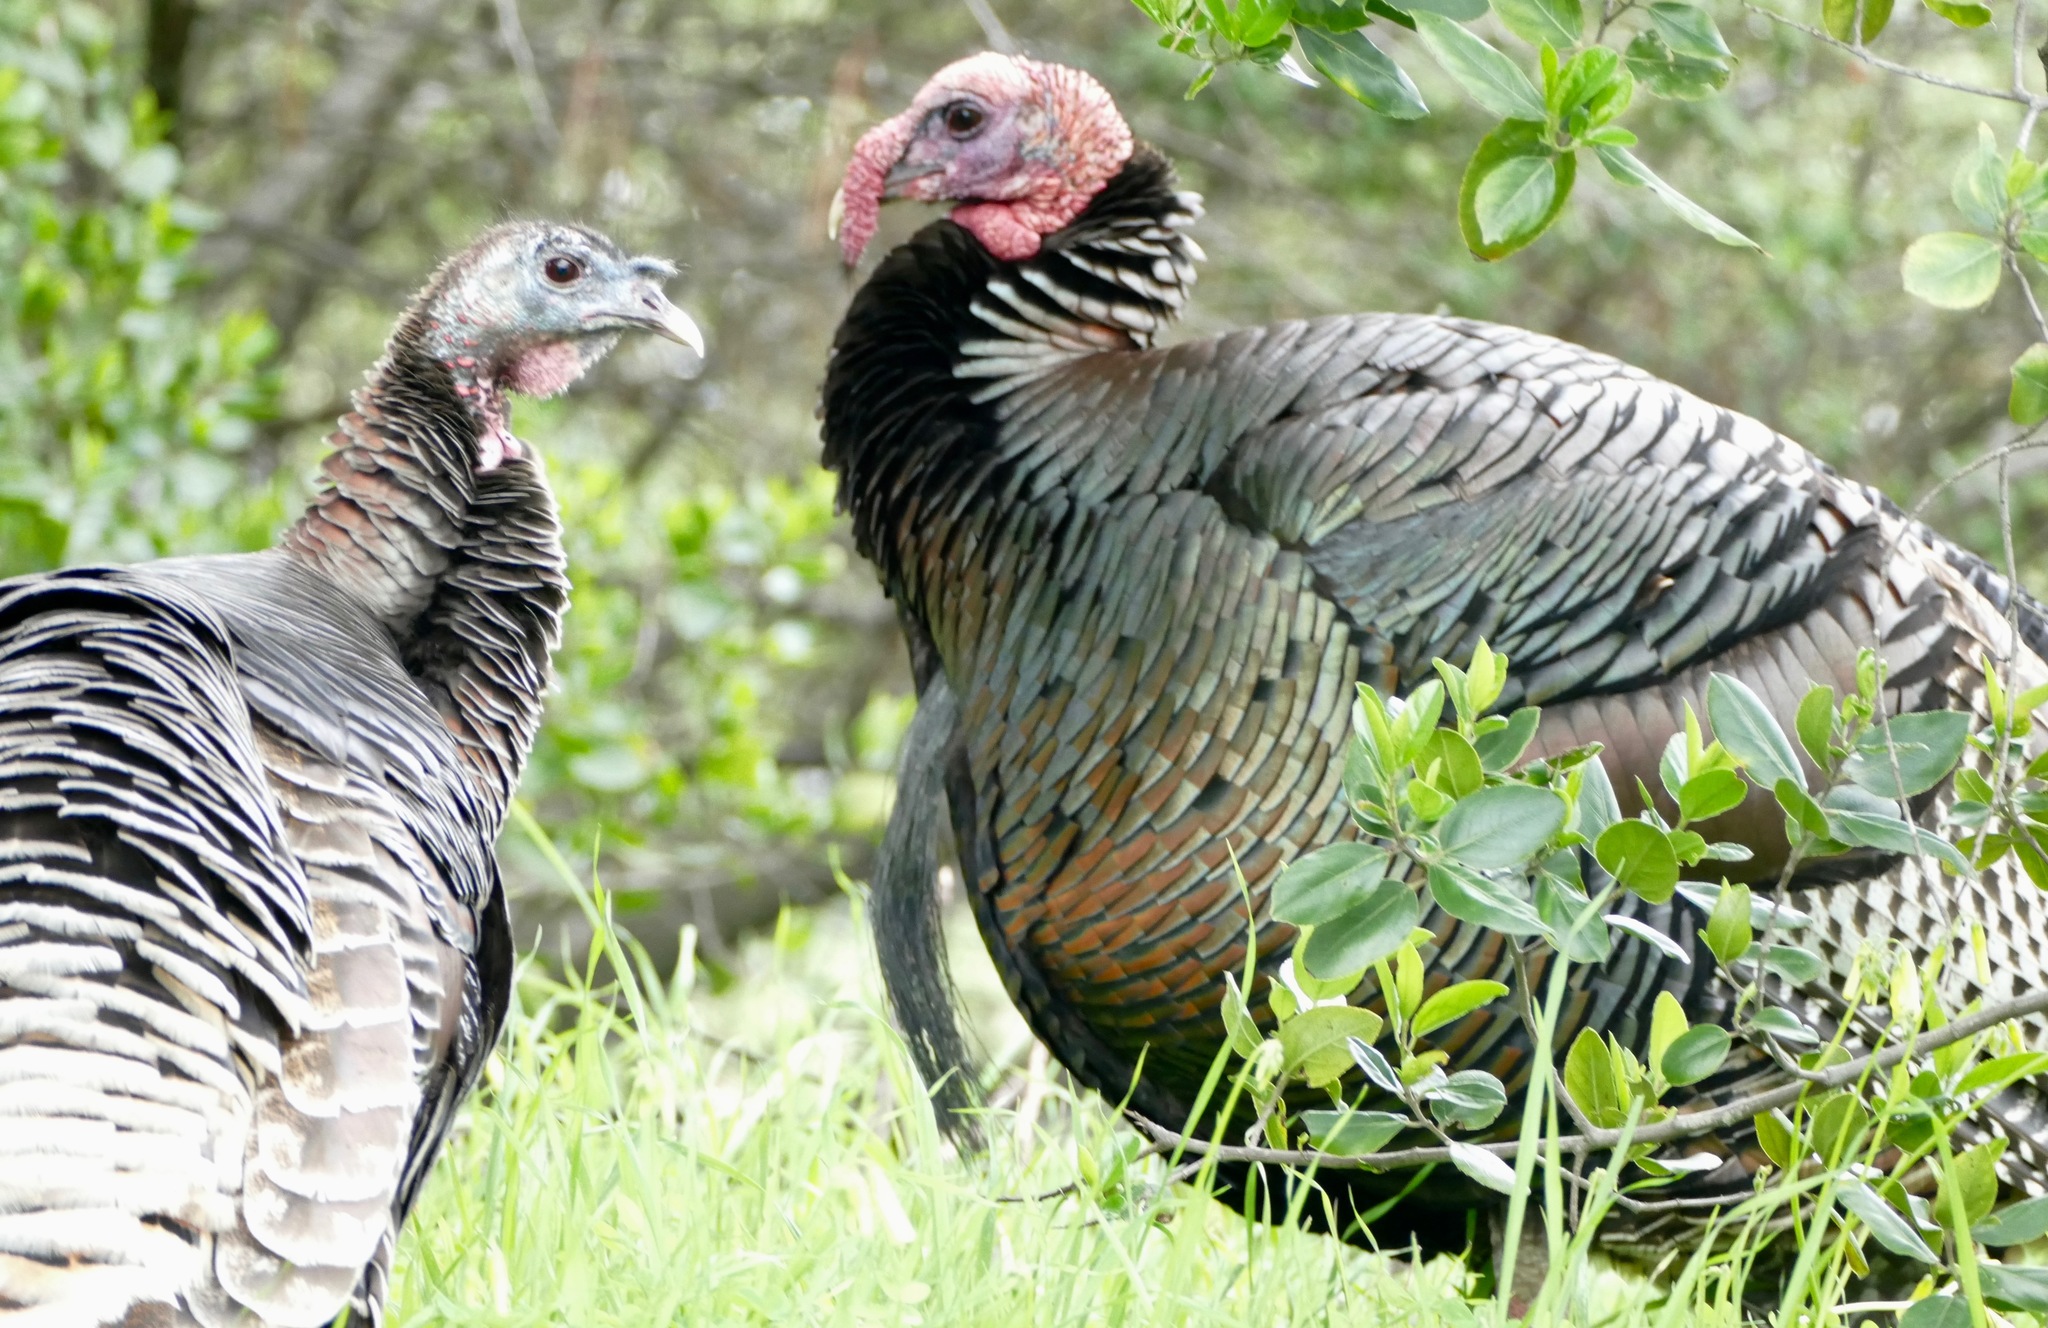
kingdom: Animalia
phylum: Chordata
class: Aves
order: Galliformes
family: Phasianidae
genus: Meleagris
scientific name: Meleagris gallopavo
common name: Wild turkey
